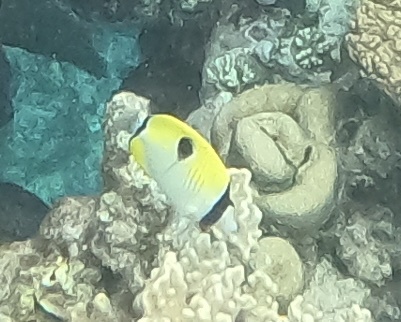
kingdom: Animalia
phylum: Chordata
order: Perciformes
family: Chaetodontidae
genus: Chaetodon
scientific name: Chaetodon unimaculatus
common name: Teardrop butterflyfish
